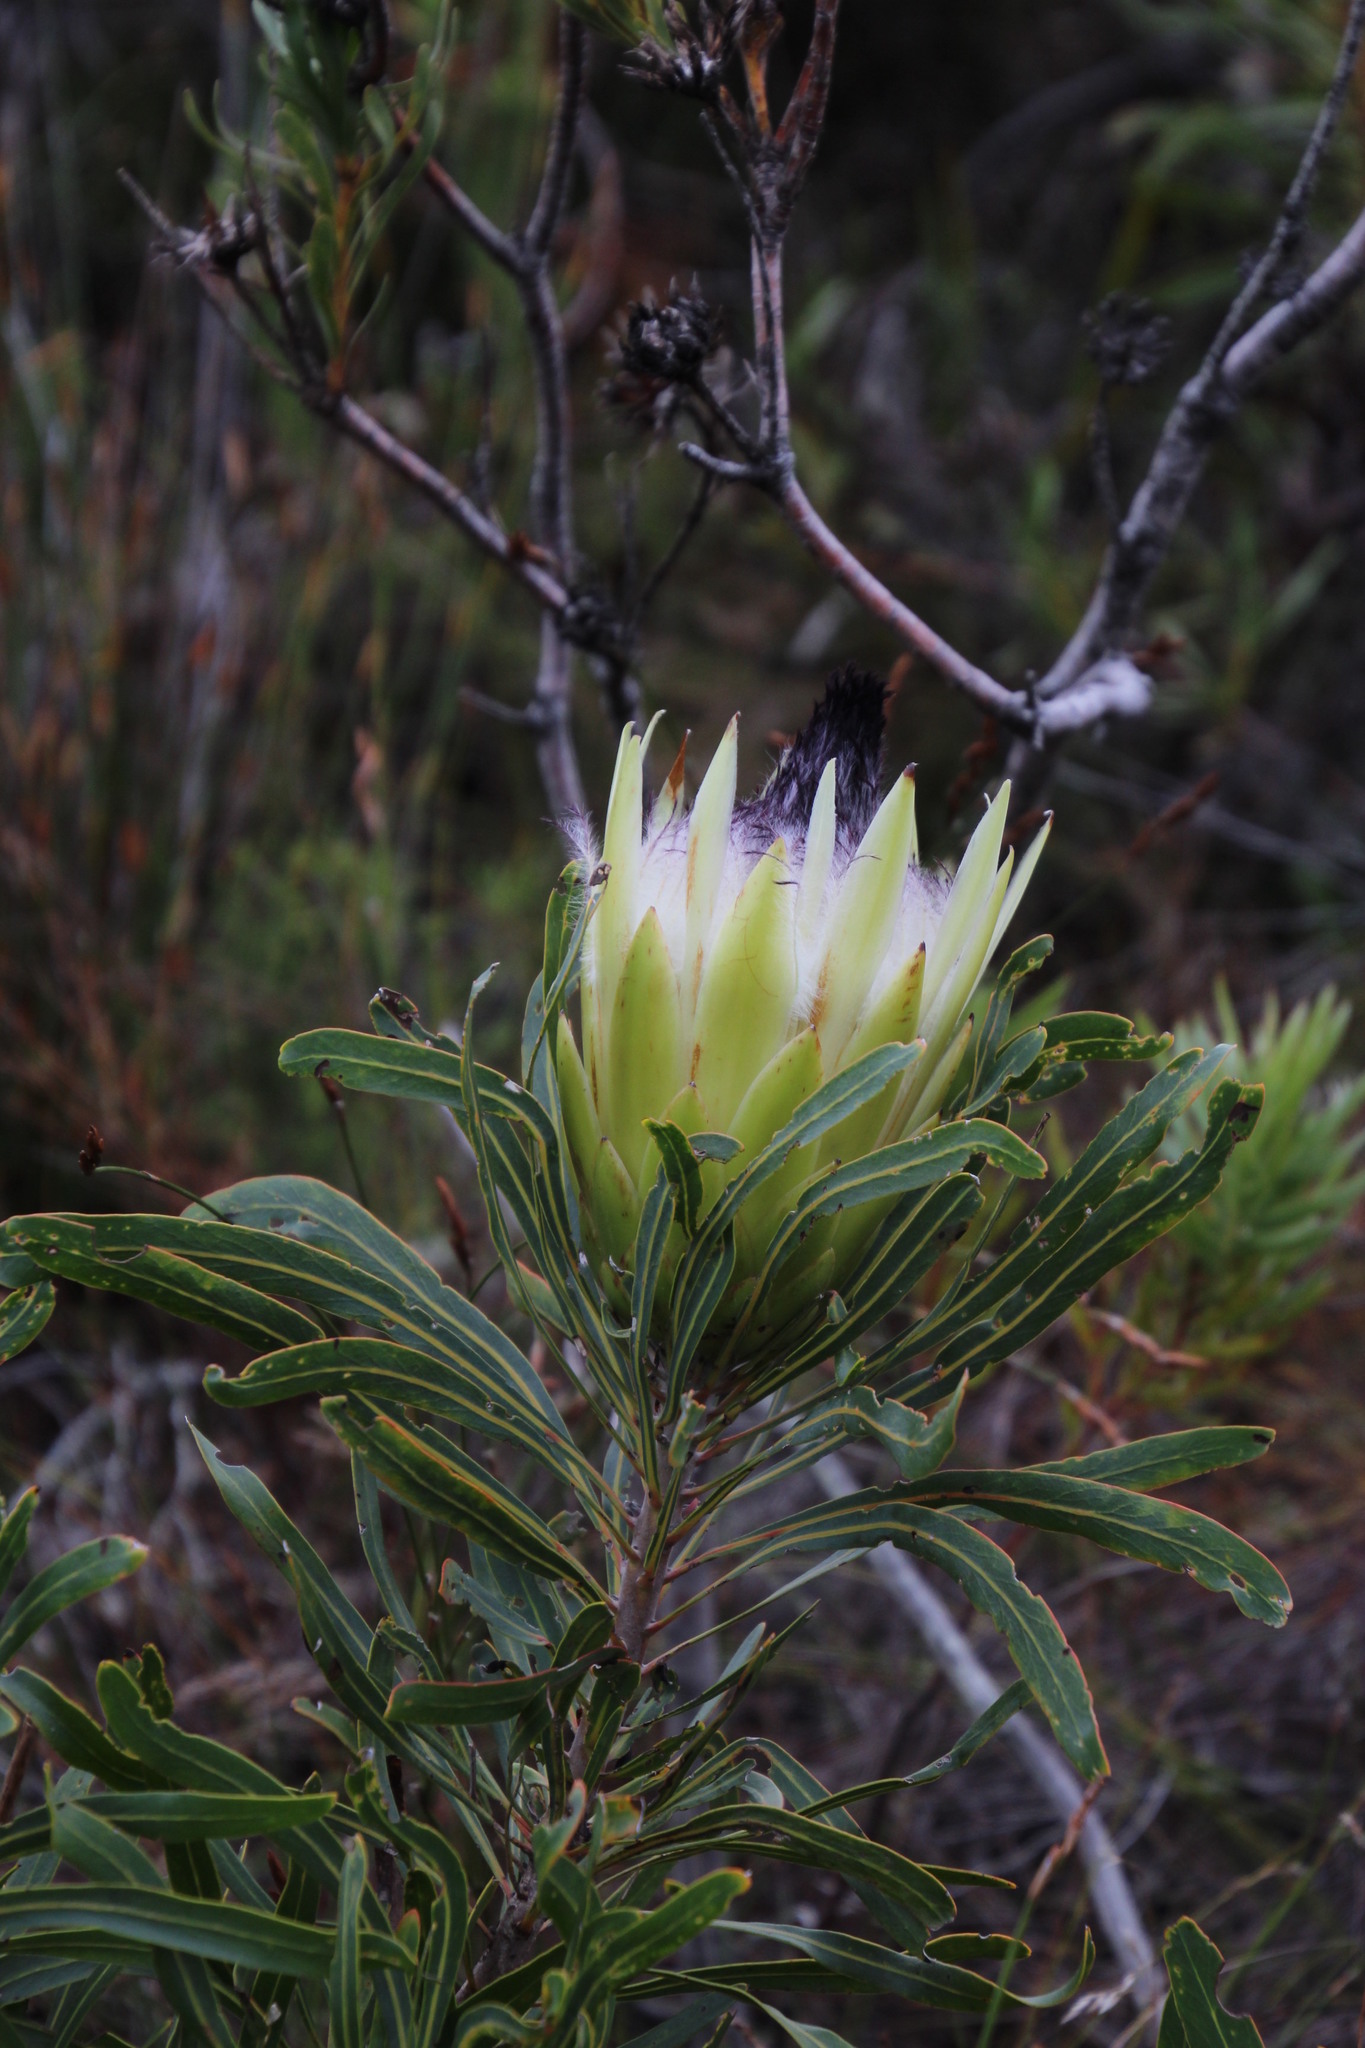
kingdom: Plantae
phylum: Tracheophyta
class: Magnoliopsida
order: Proteales
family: Proteaceae
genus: Protea
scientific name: Protea longifolia
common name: Long-leaf sugarbush
